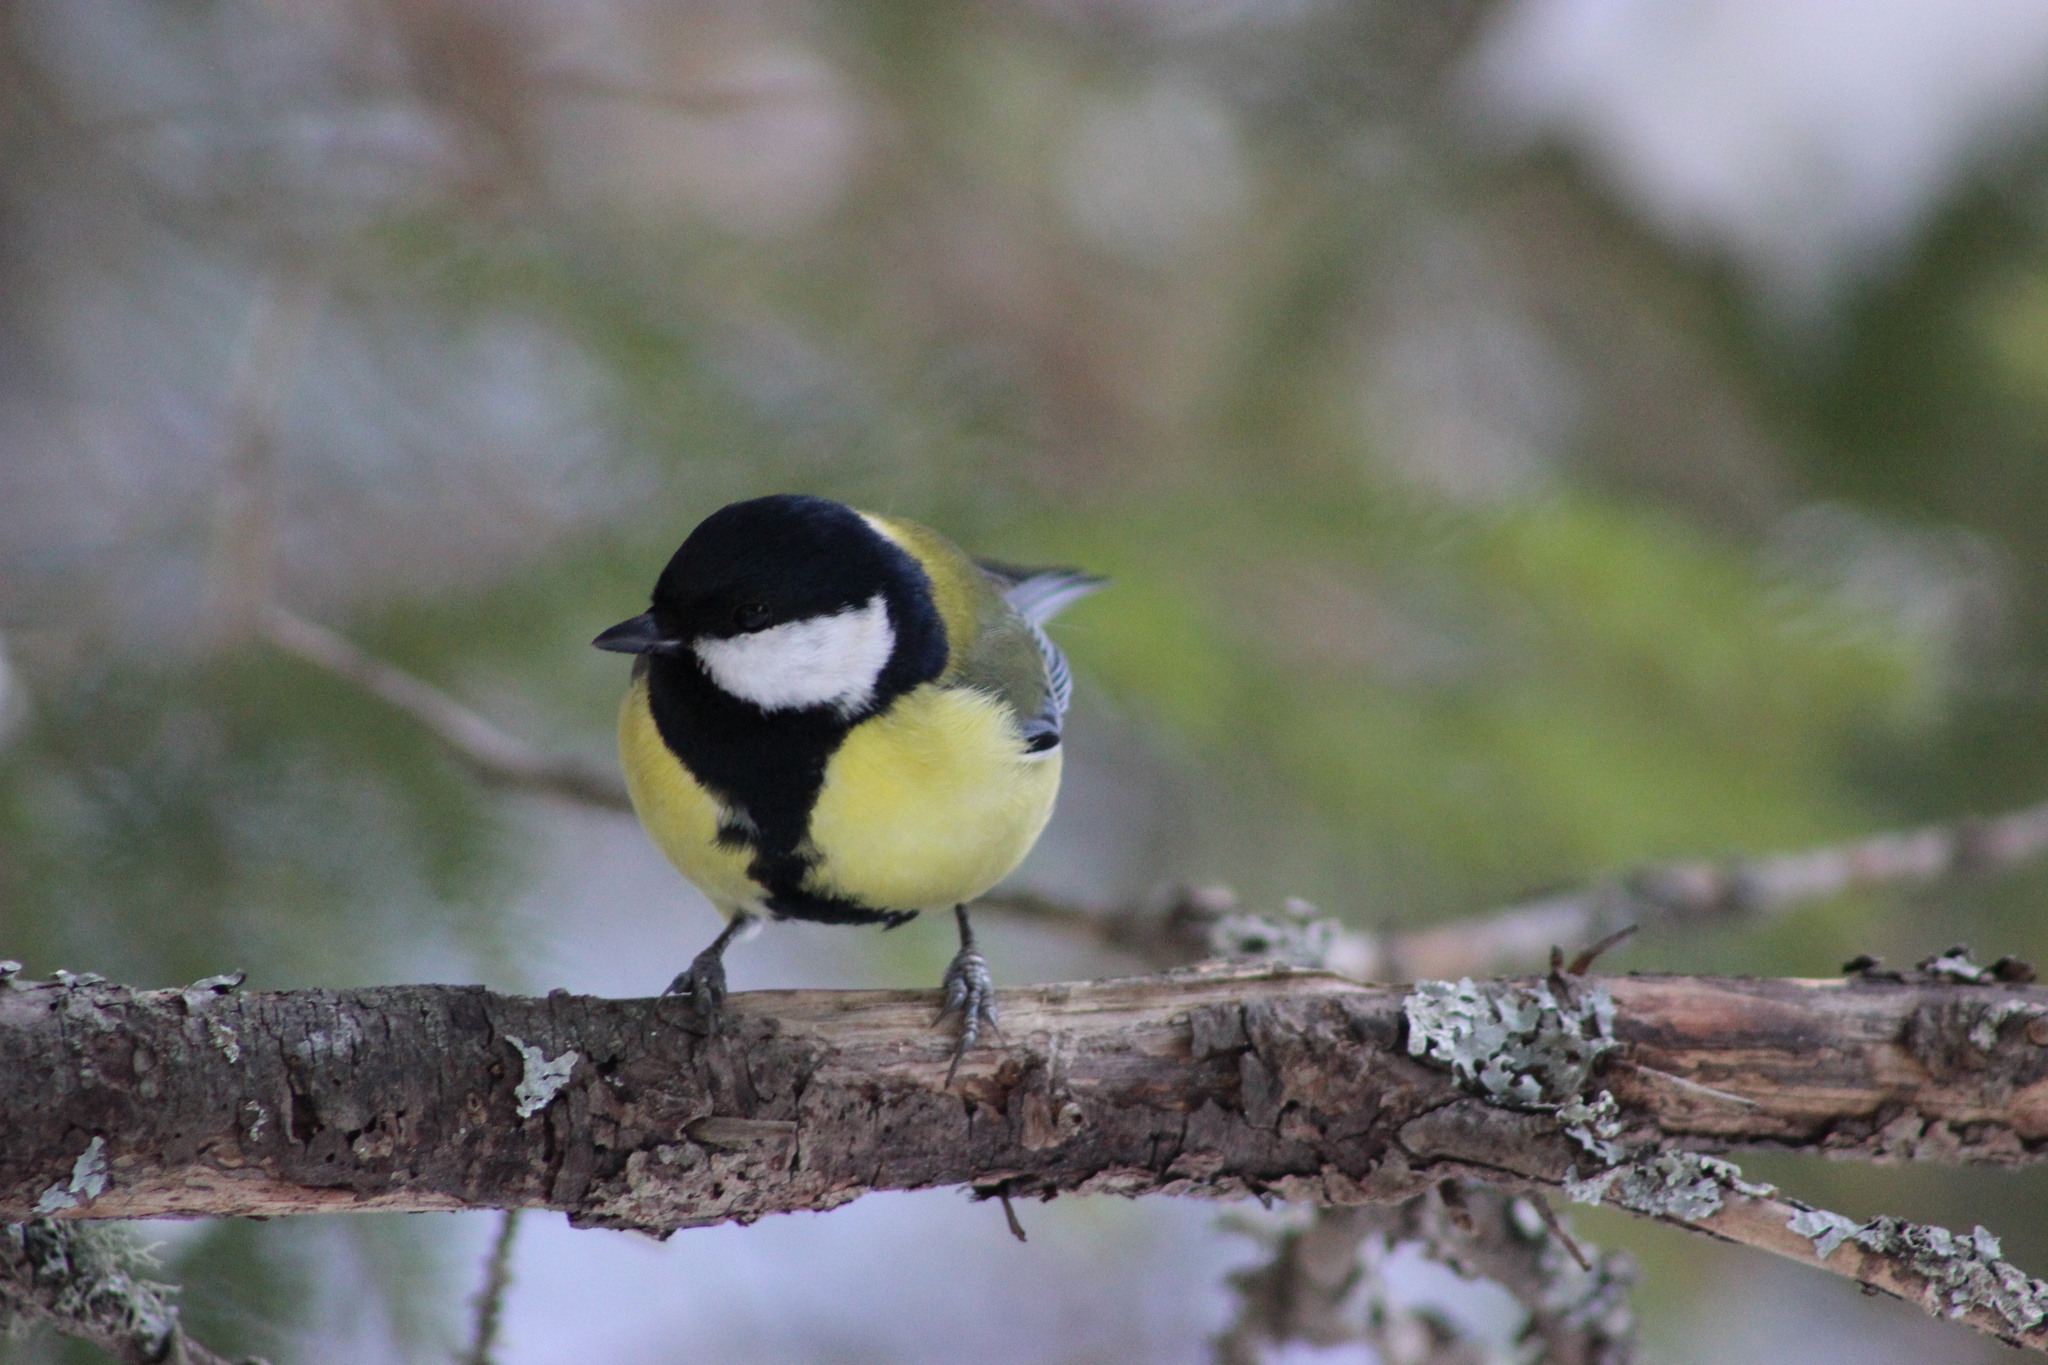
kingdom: Animalia
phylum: Chordata
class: Aves
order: Passeriformes
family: Paridae
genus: Parus
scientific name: Parus major
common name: Great tit
